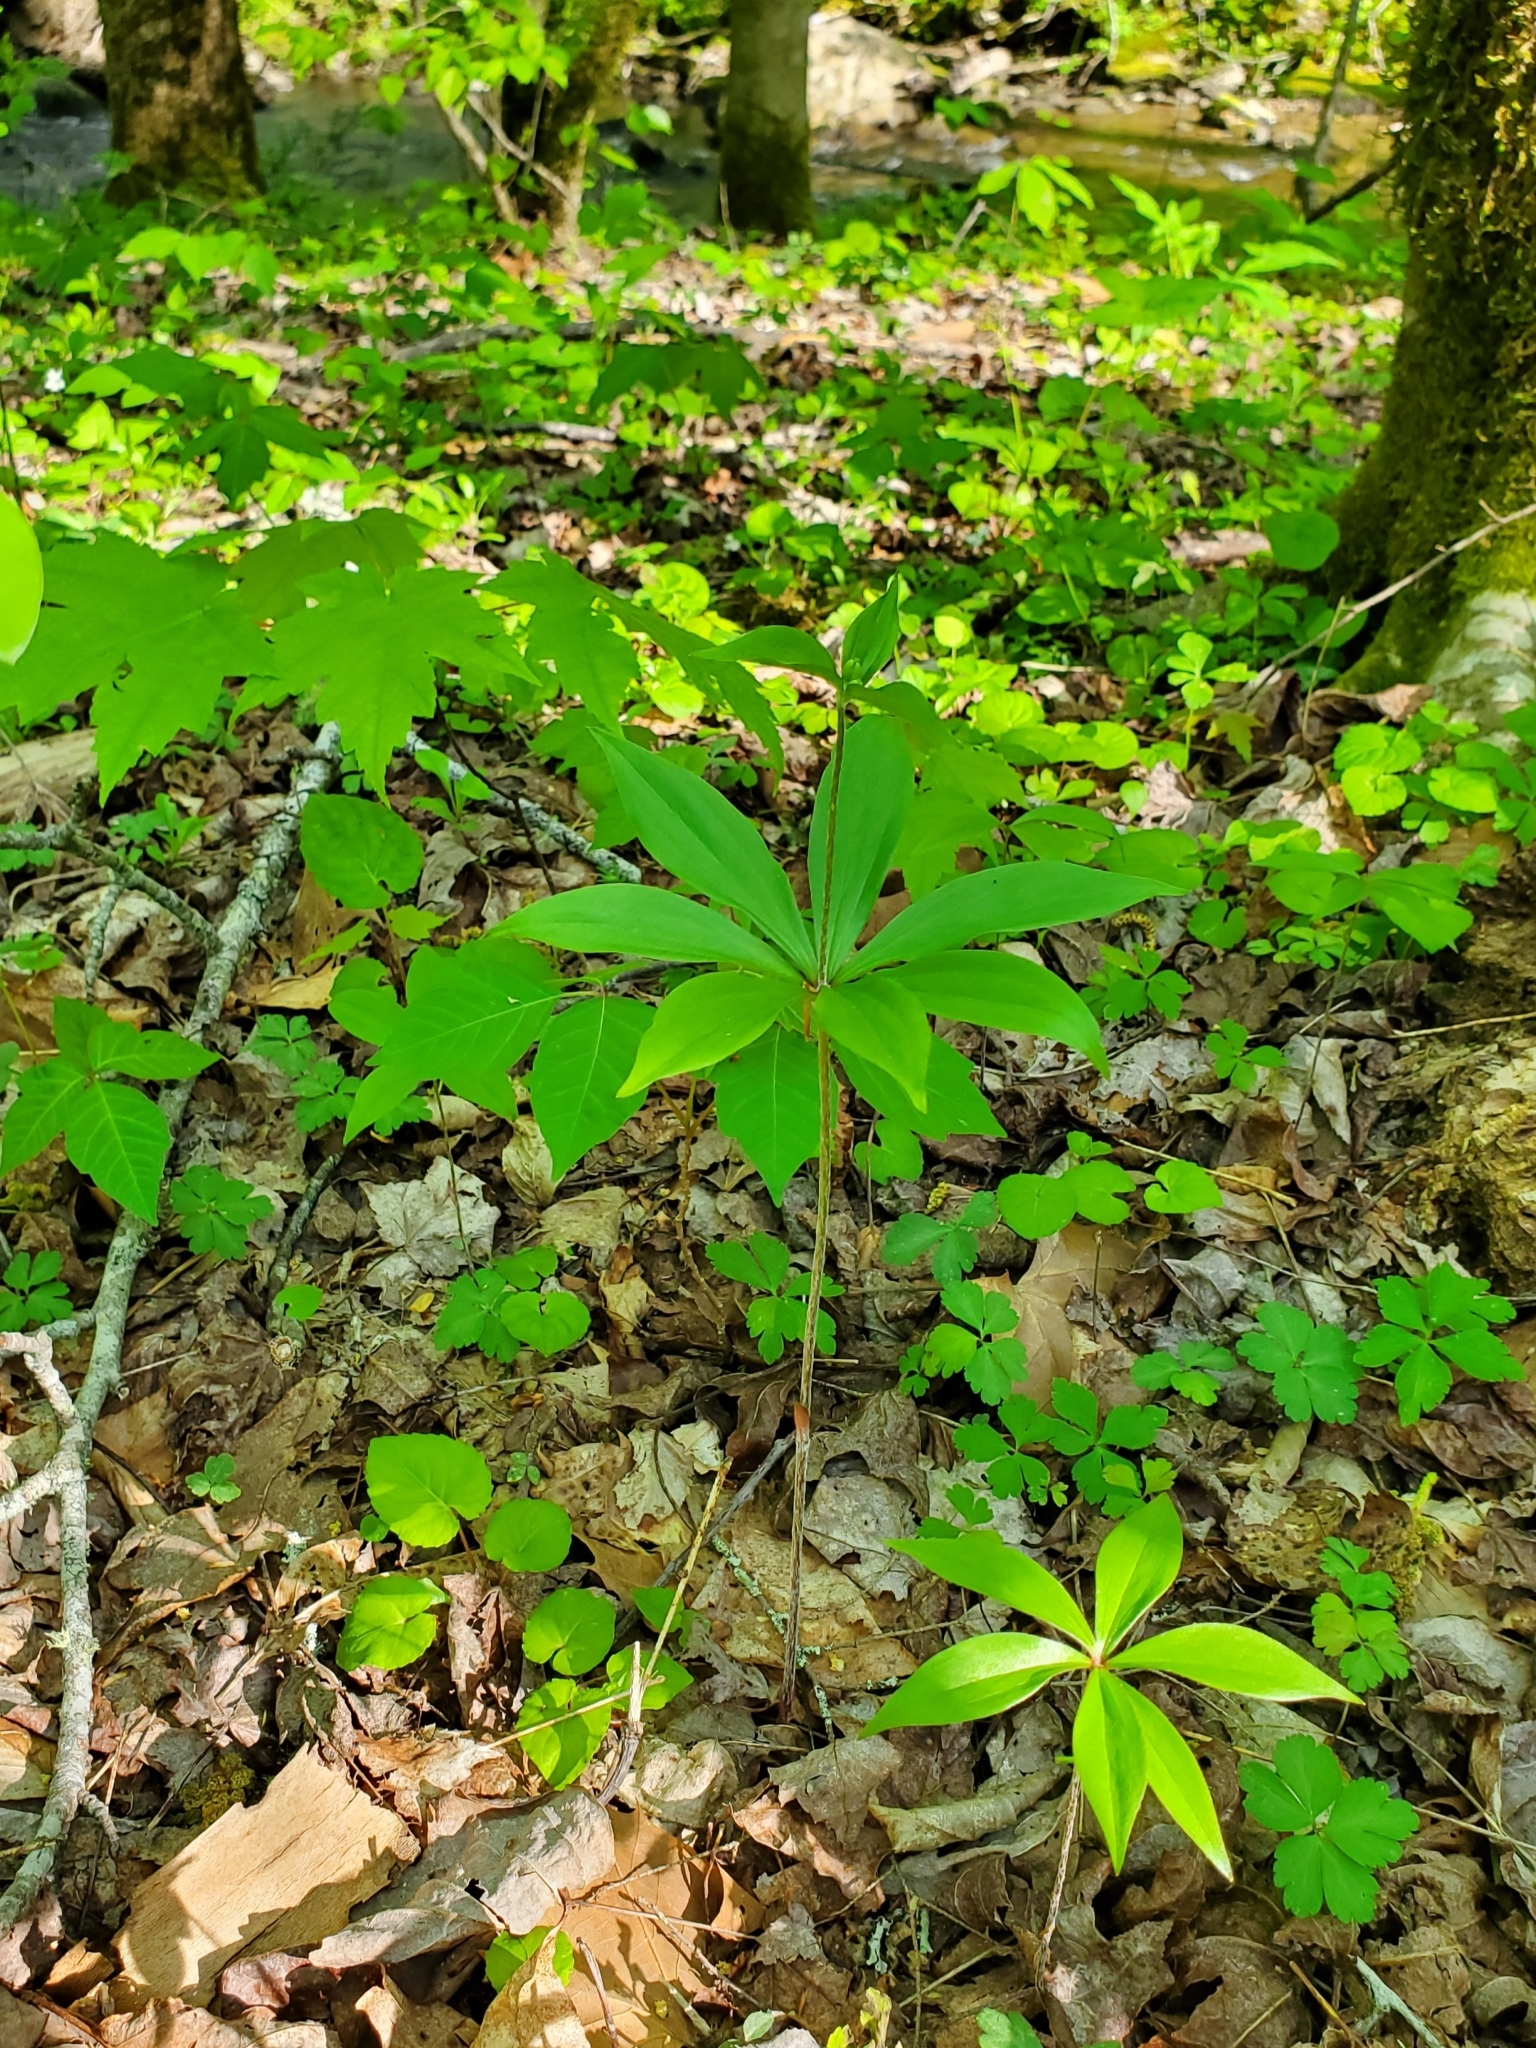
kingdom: Plantae
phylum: Tracheophyta
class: Liliopsida
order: Liliales
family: Liliaceae
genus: Medeola
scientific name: Medeola virginiana
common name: Indian cucumber-root
